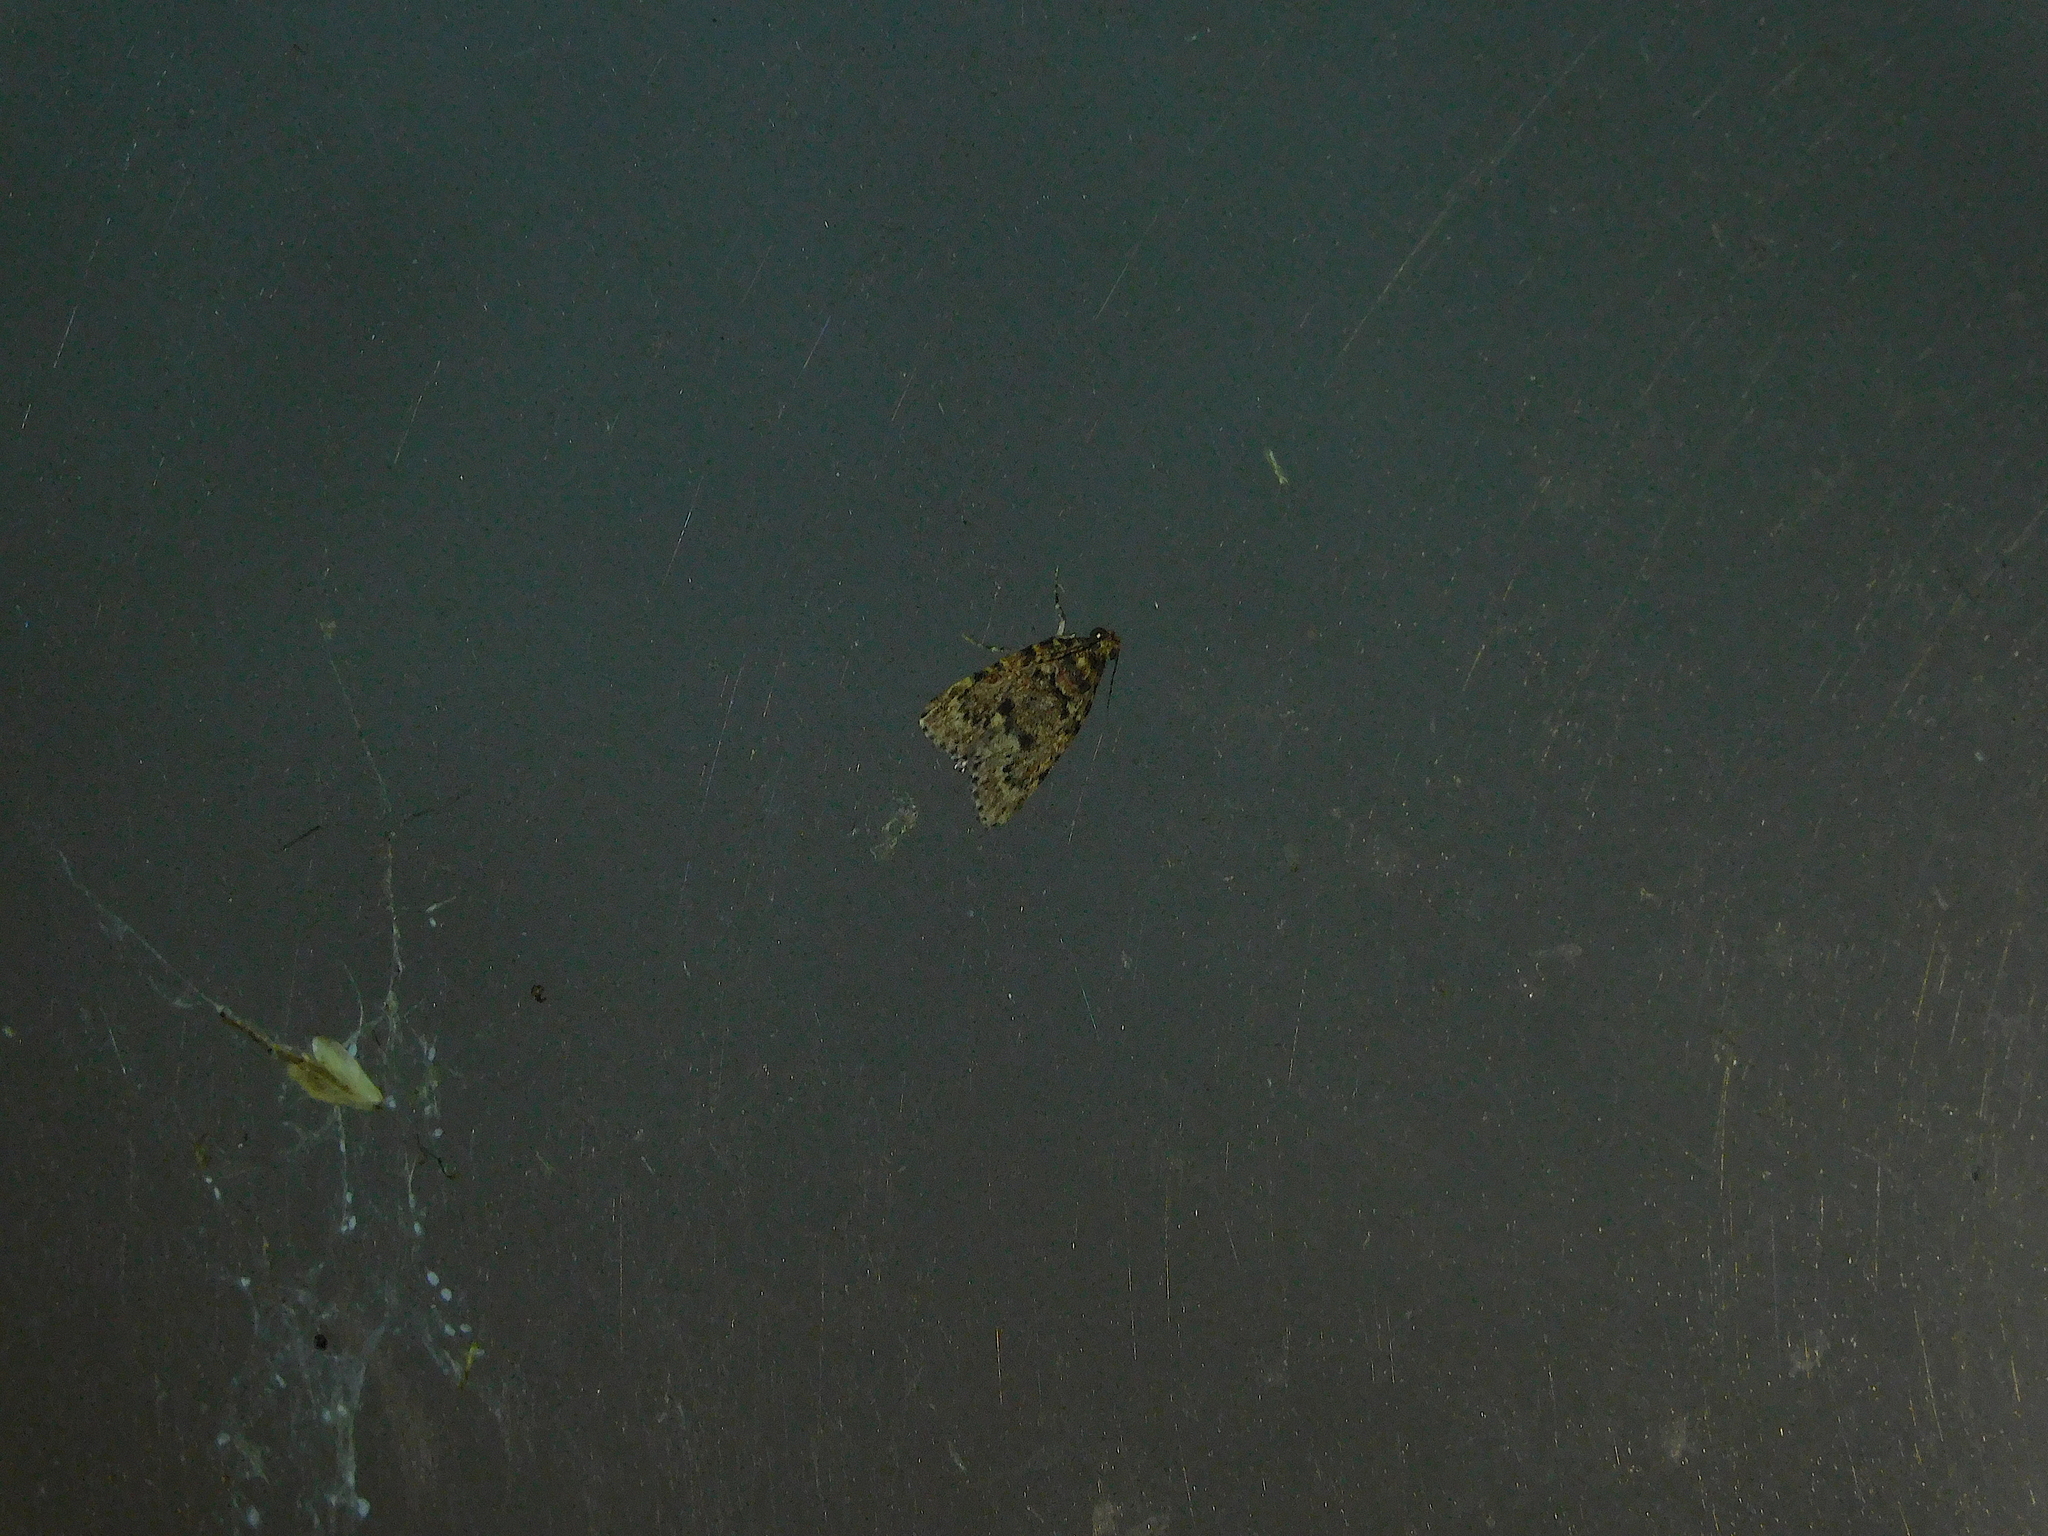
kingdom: Animalia
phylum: Arthropoda
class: Insecta
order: Lepidoptera
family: Pyralidae
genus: Mimaglossa
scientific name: Mimaglossa nauplialis
